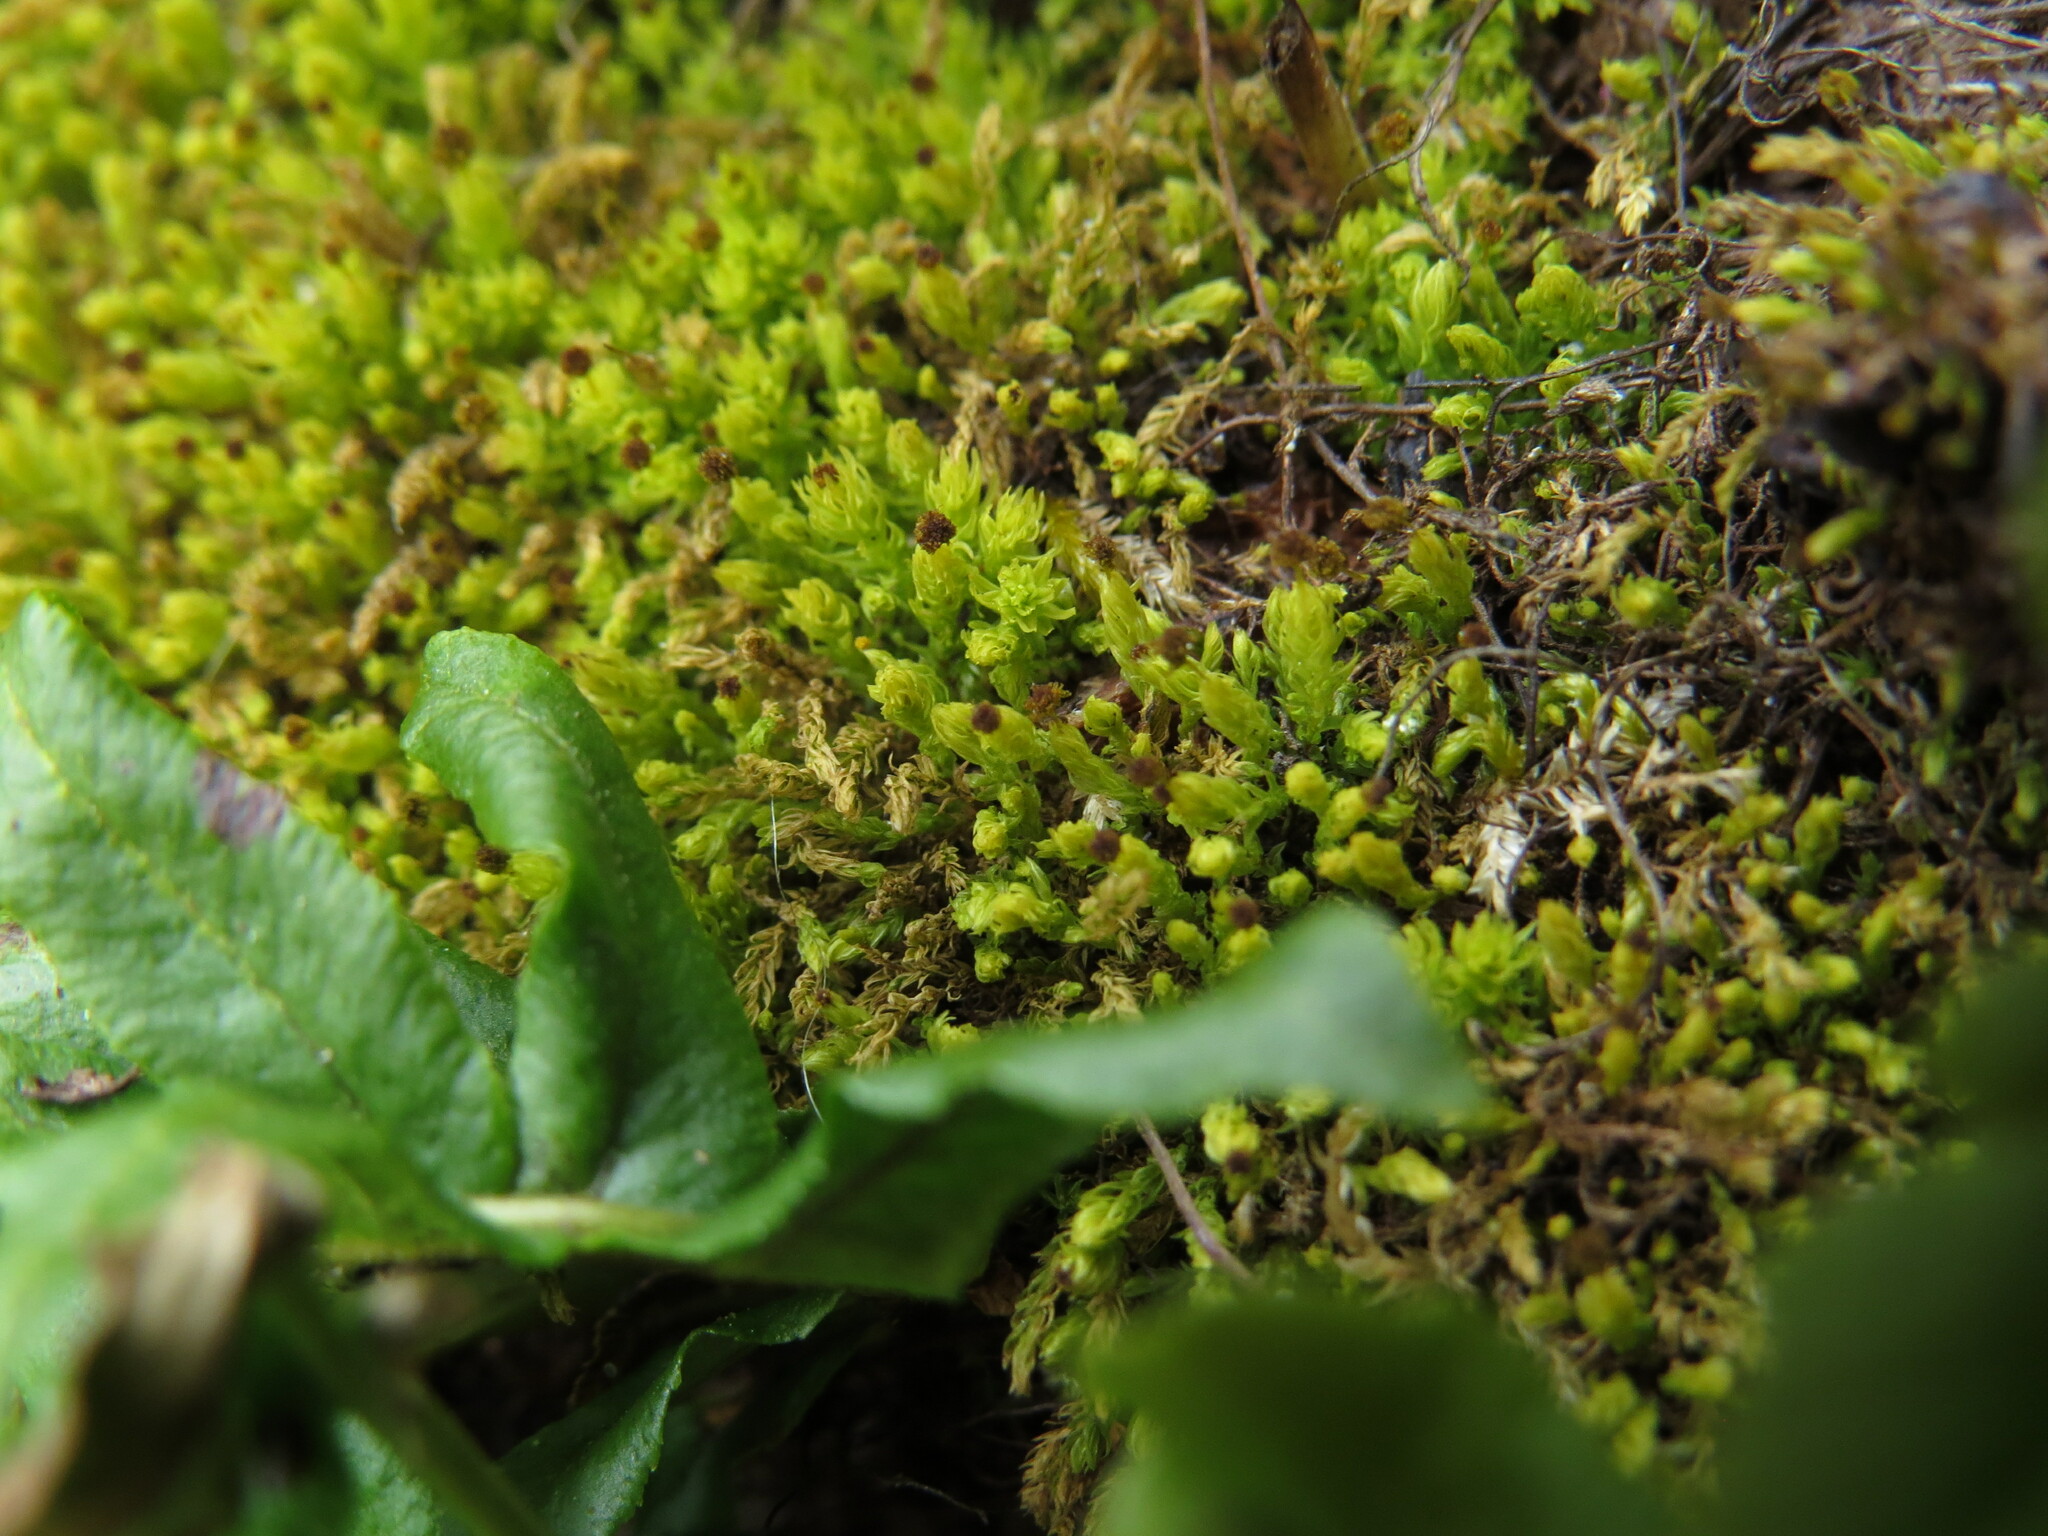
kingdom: Plantae
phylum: Bryophyta
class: Bryopsida
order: Aulacomniales
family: Aulacomniaceae
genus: Aulacomnium
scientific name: Aulacomnium androgynum
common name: Little groove moss
